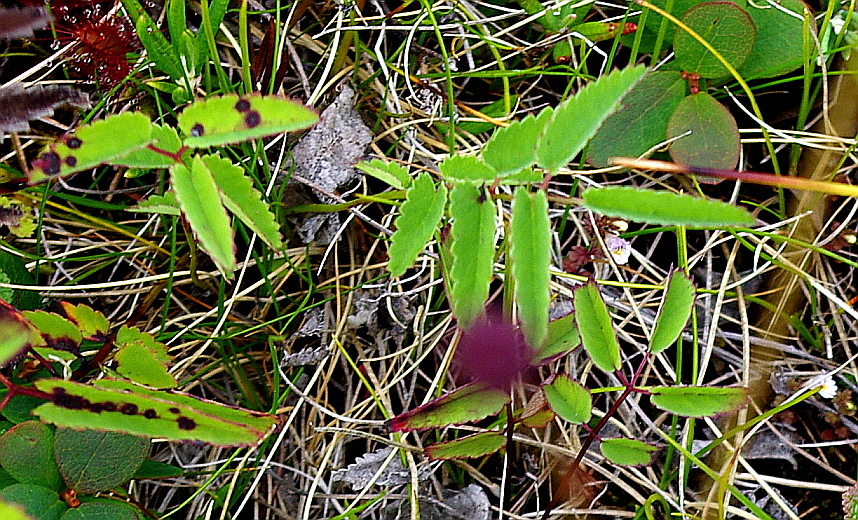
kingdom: Plantae
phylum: Tracheophyta
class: Magnoliopsida
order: Rosales
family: Rosaceae
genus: Sanguisorba
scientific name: Sanguisorba officinalis
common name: Great burnet
